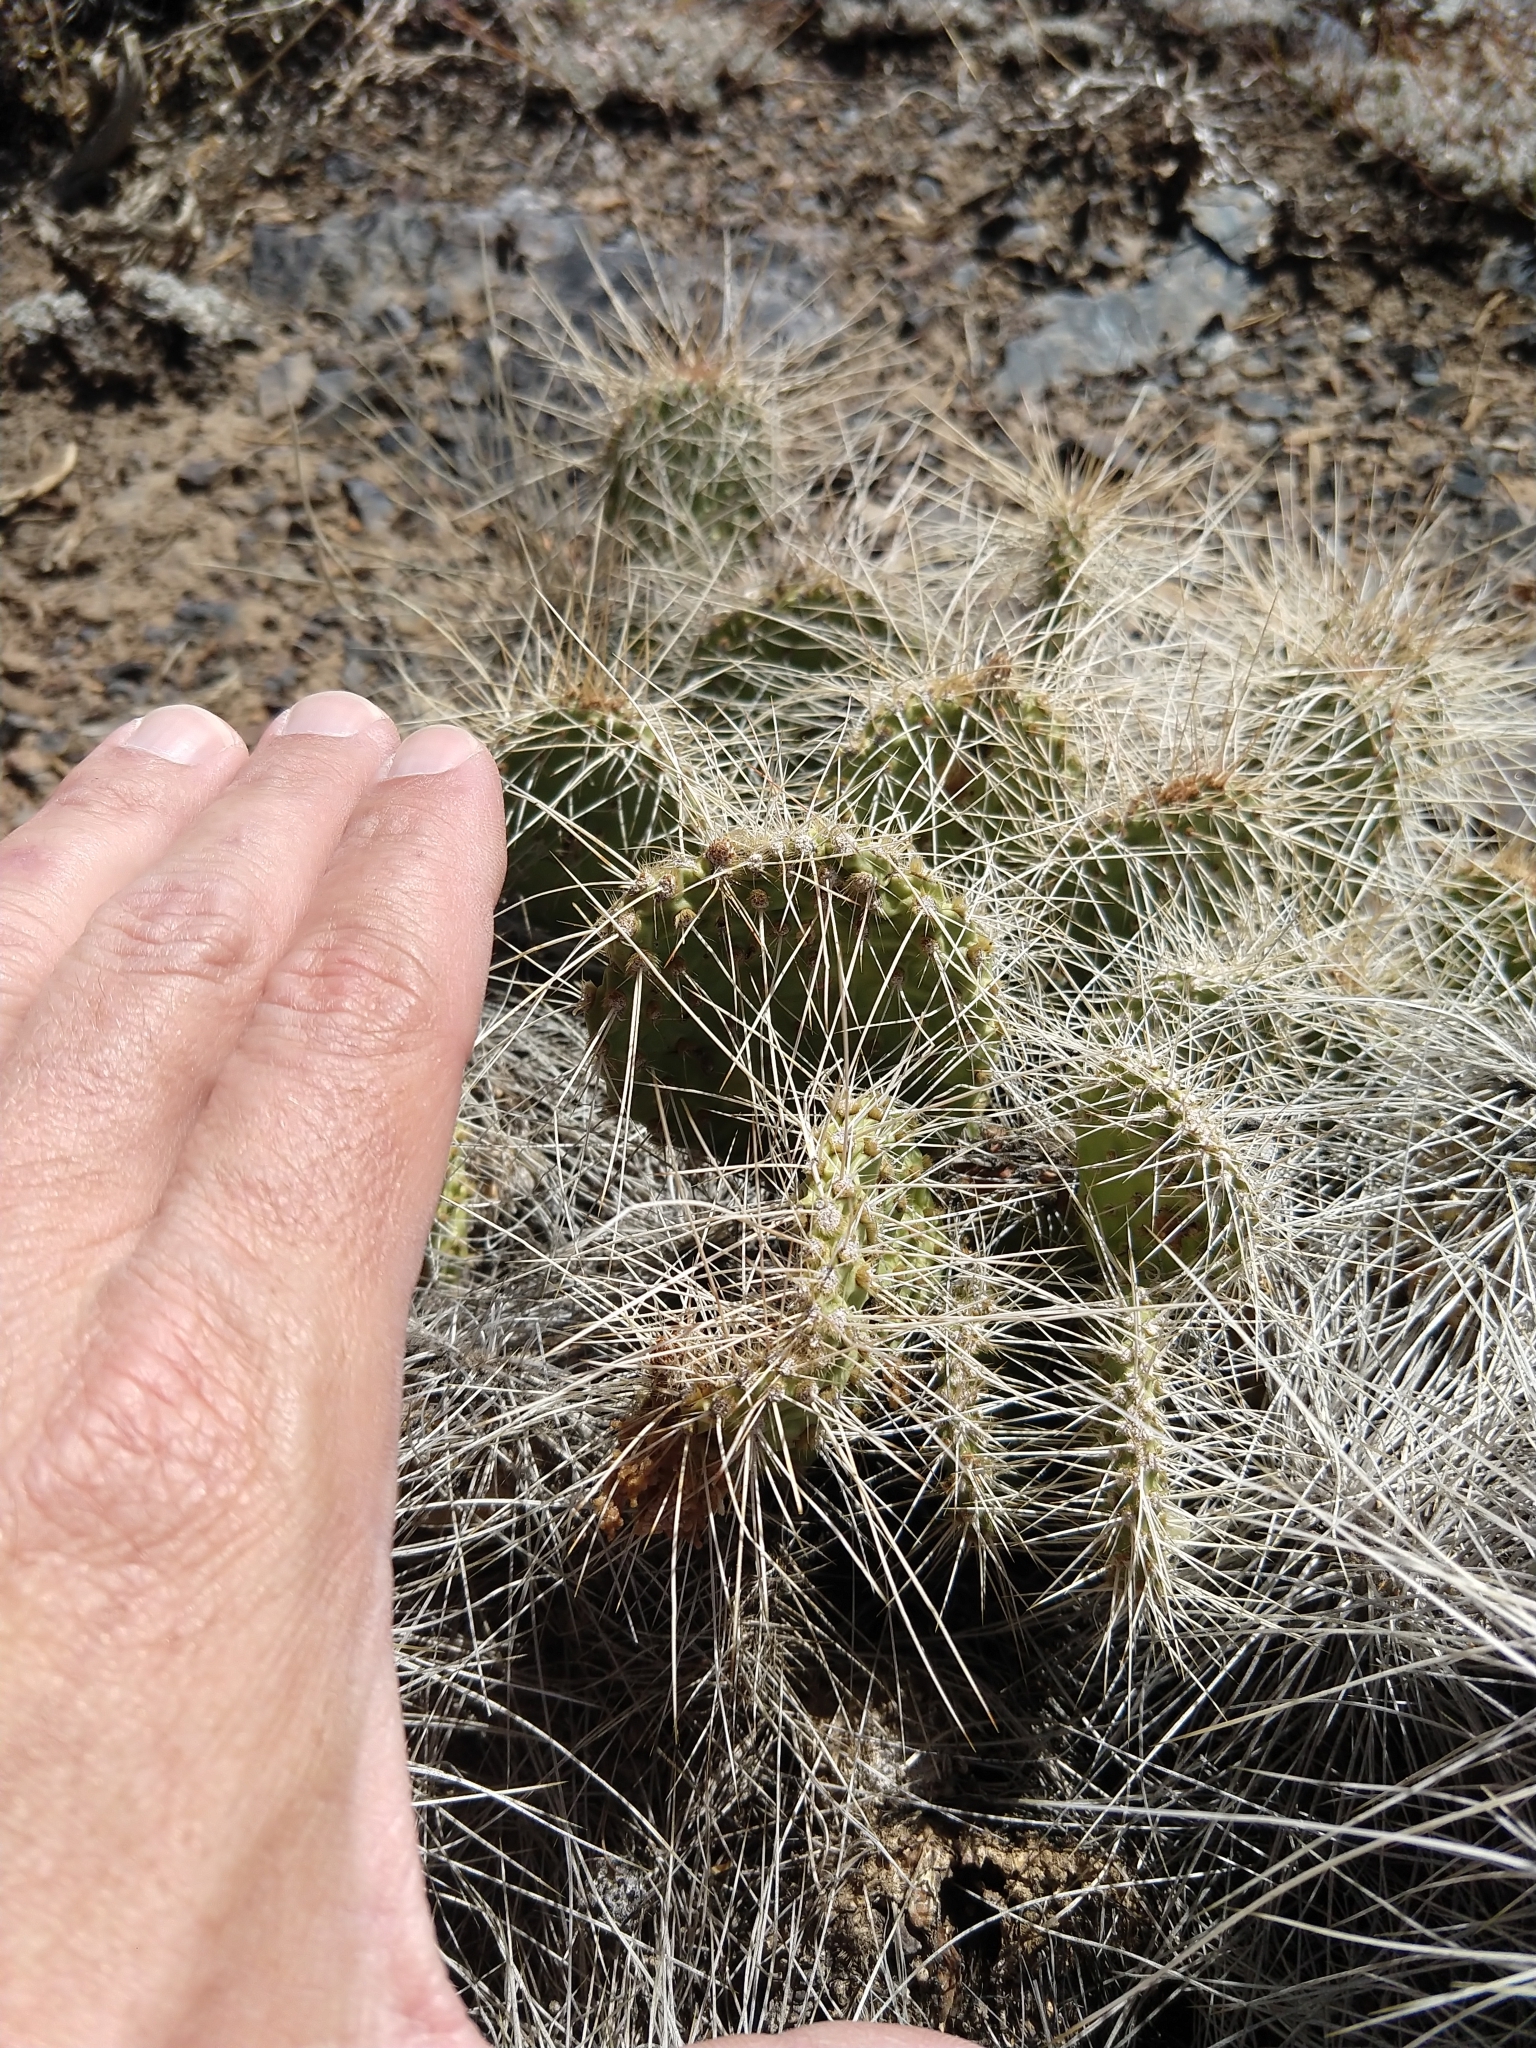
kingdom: Plantae
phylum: Tracheophyta
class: Magnoliopsida
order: Caryophyllales
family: Cactaceae
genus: Opuntia
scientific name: Opuntia polyacantha
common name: Plains prickly-pear
